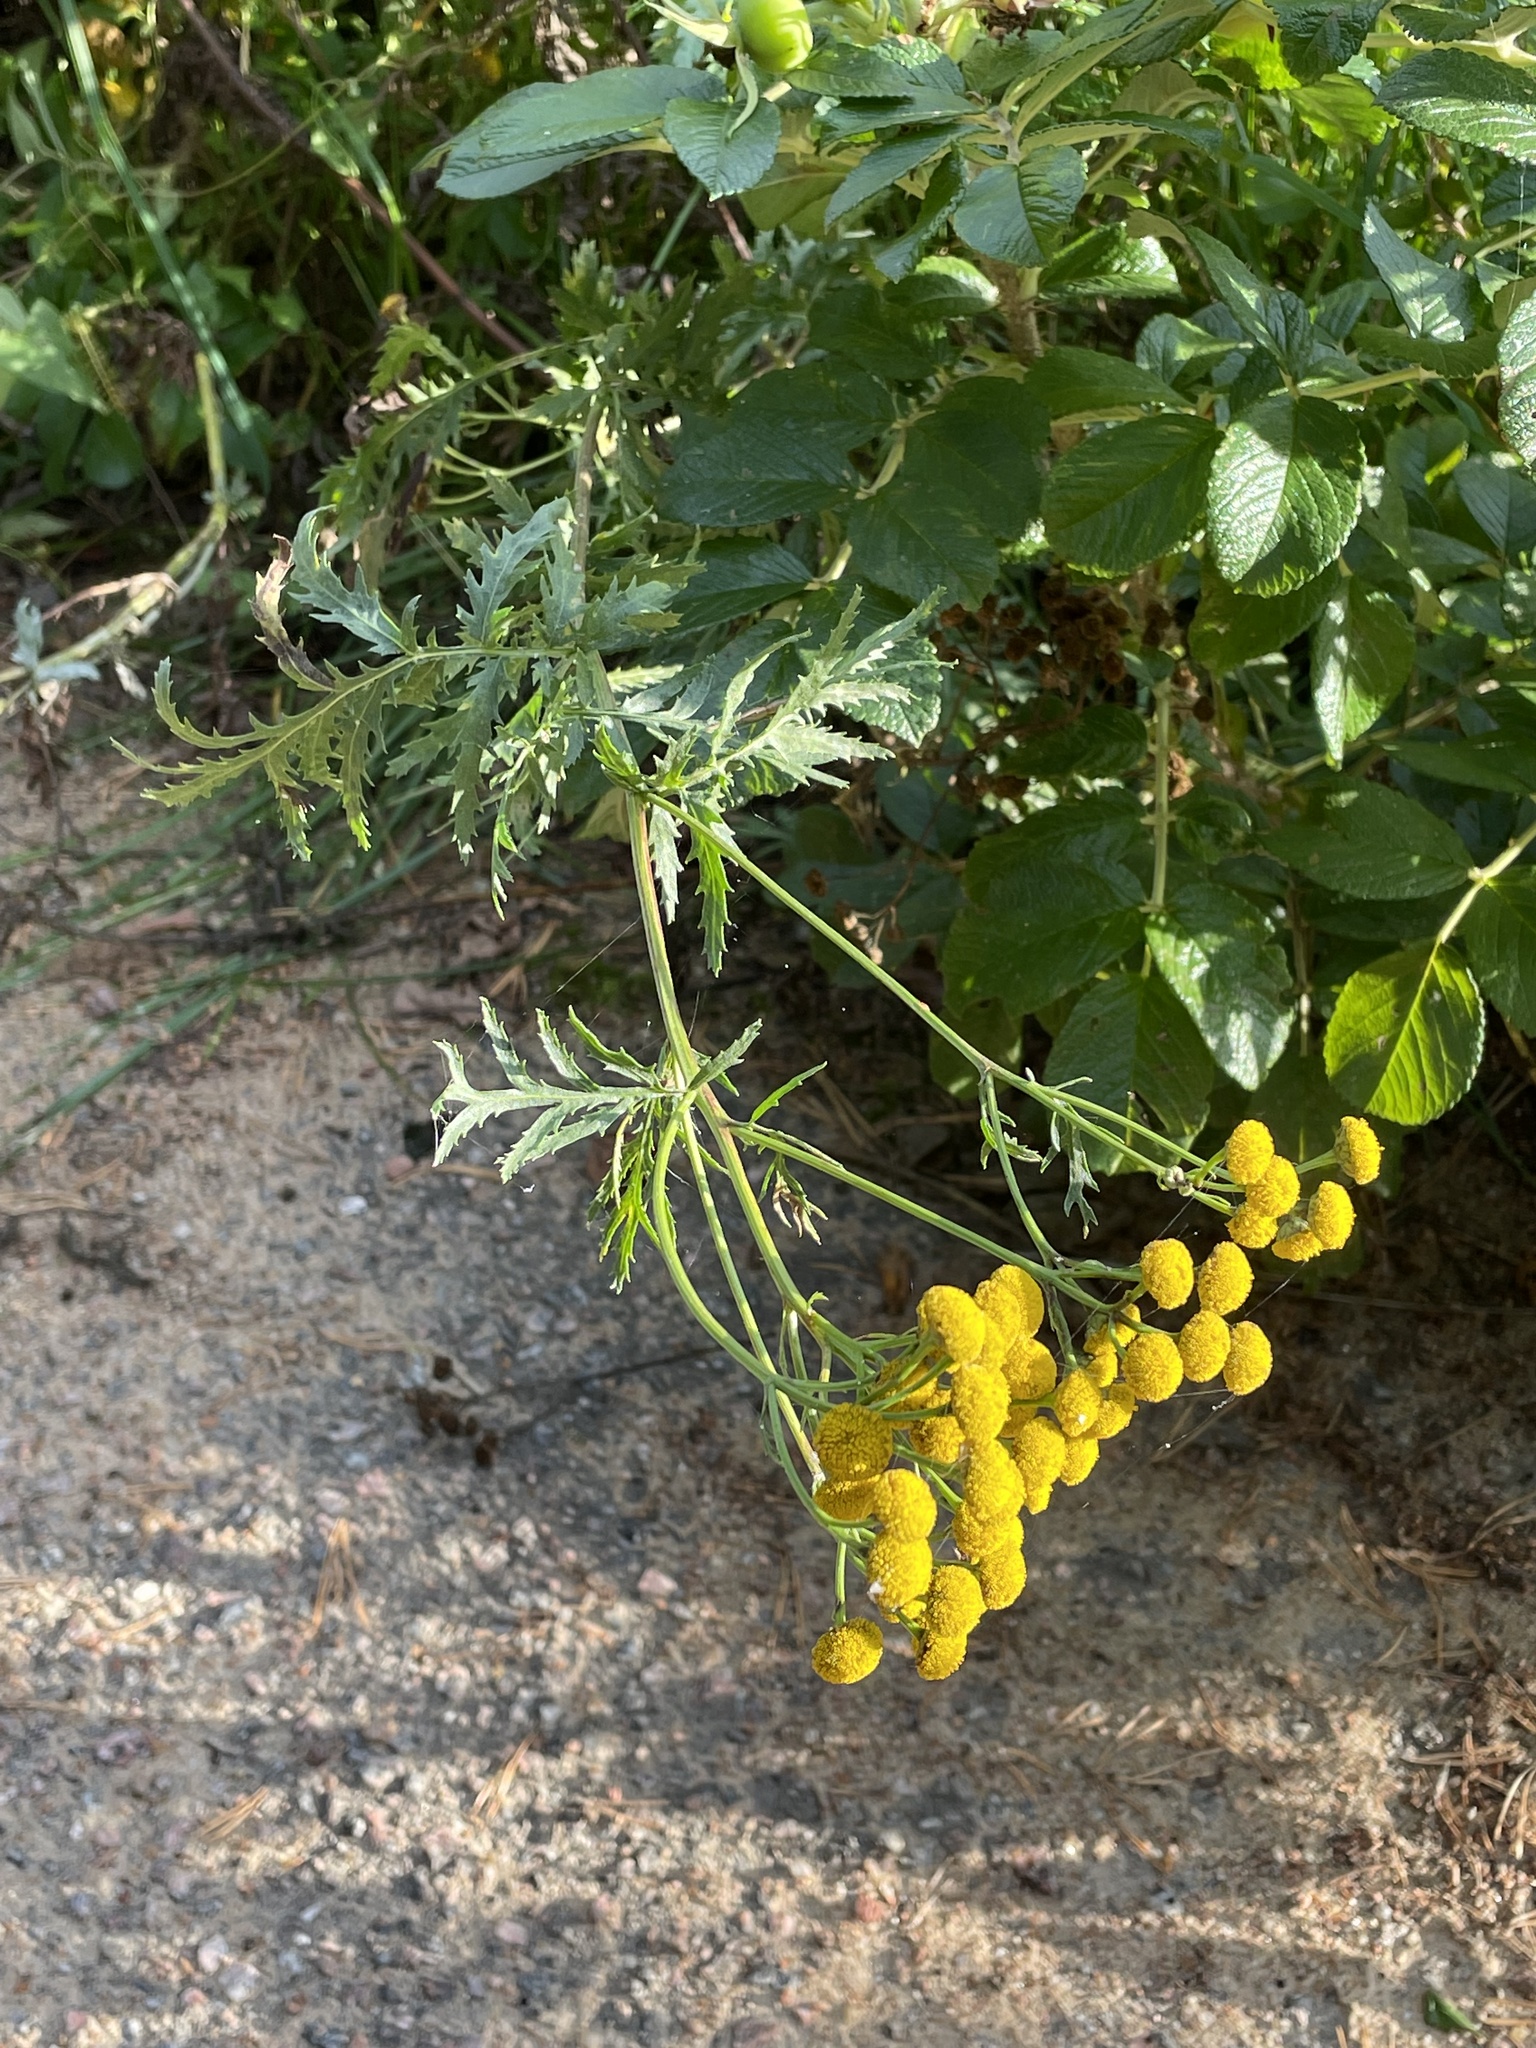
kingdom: Plantae
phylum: Tracheophyta
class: Magnoliopsida
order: Asterales
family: Asteraceae
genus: Tanacetum
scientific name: Tanacetum vulgare
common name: Common tansy
